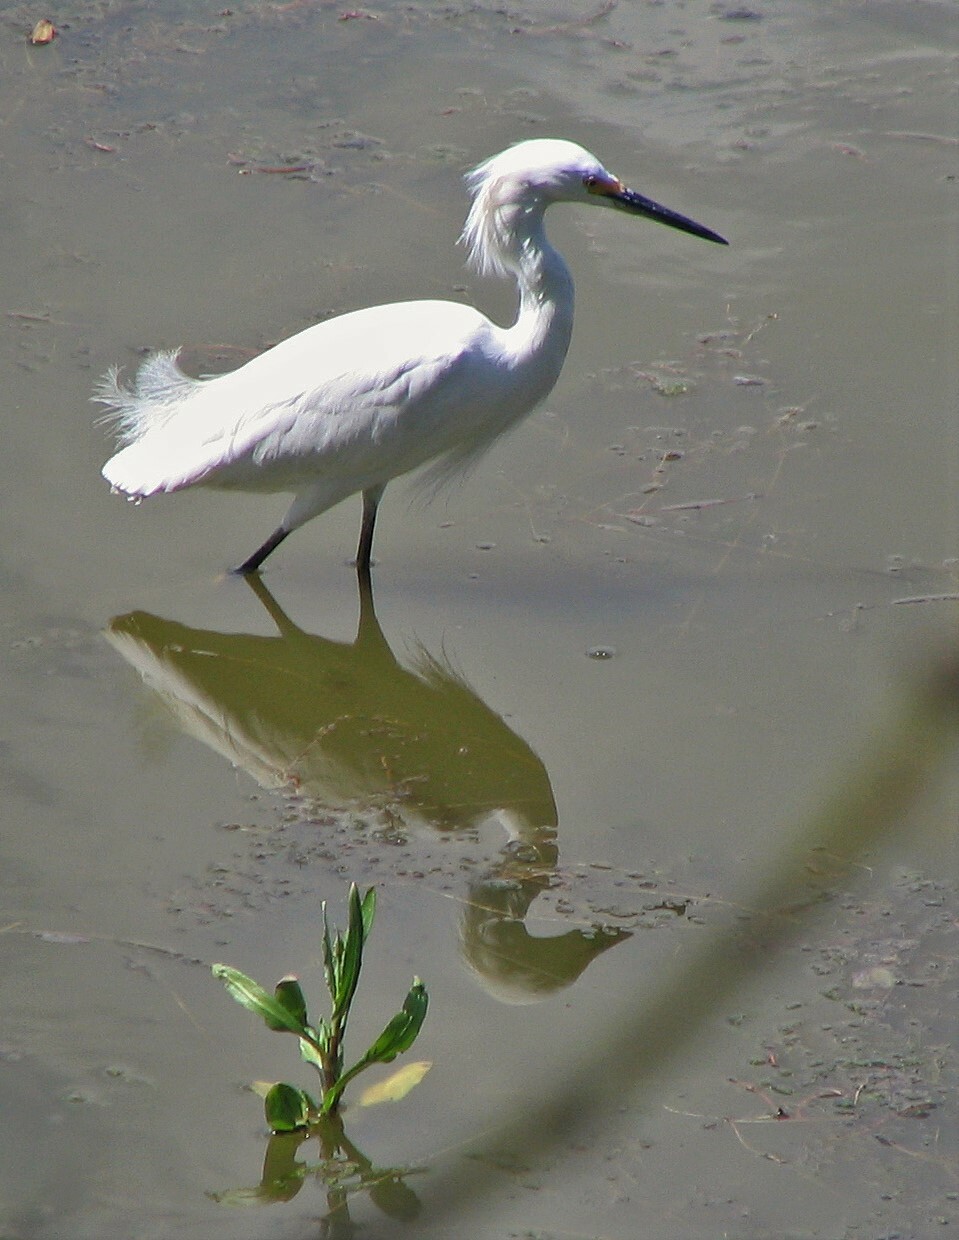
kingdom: Animalia
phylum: Chordata
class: Aves
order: Pelecaniformes
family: Ardeidae
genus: Egretta
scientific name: Egretta thula
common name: Snowy egret
